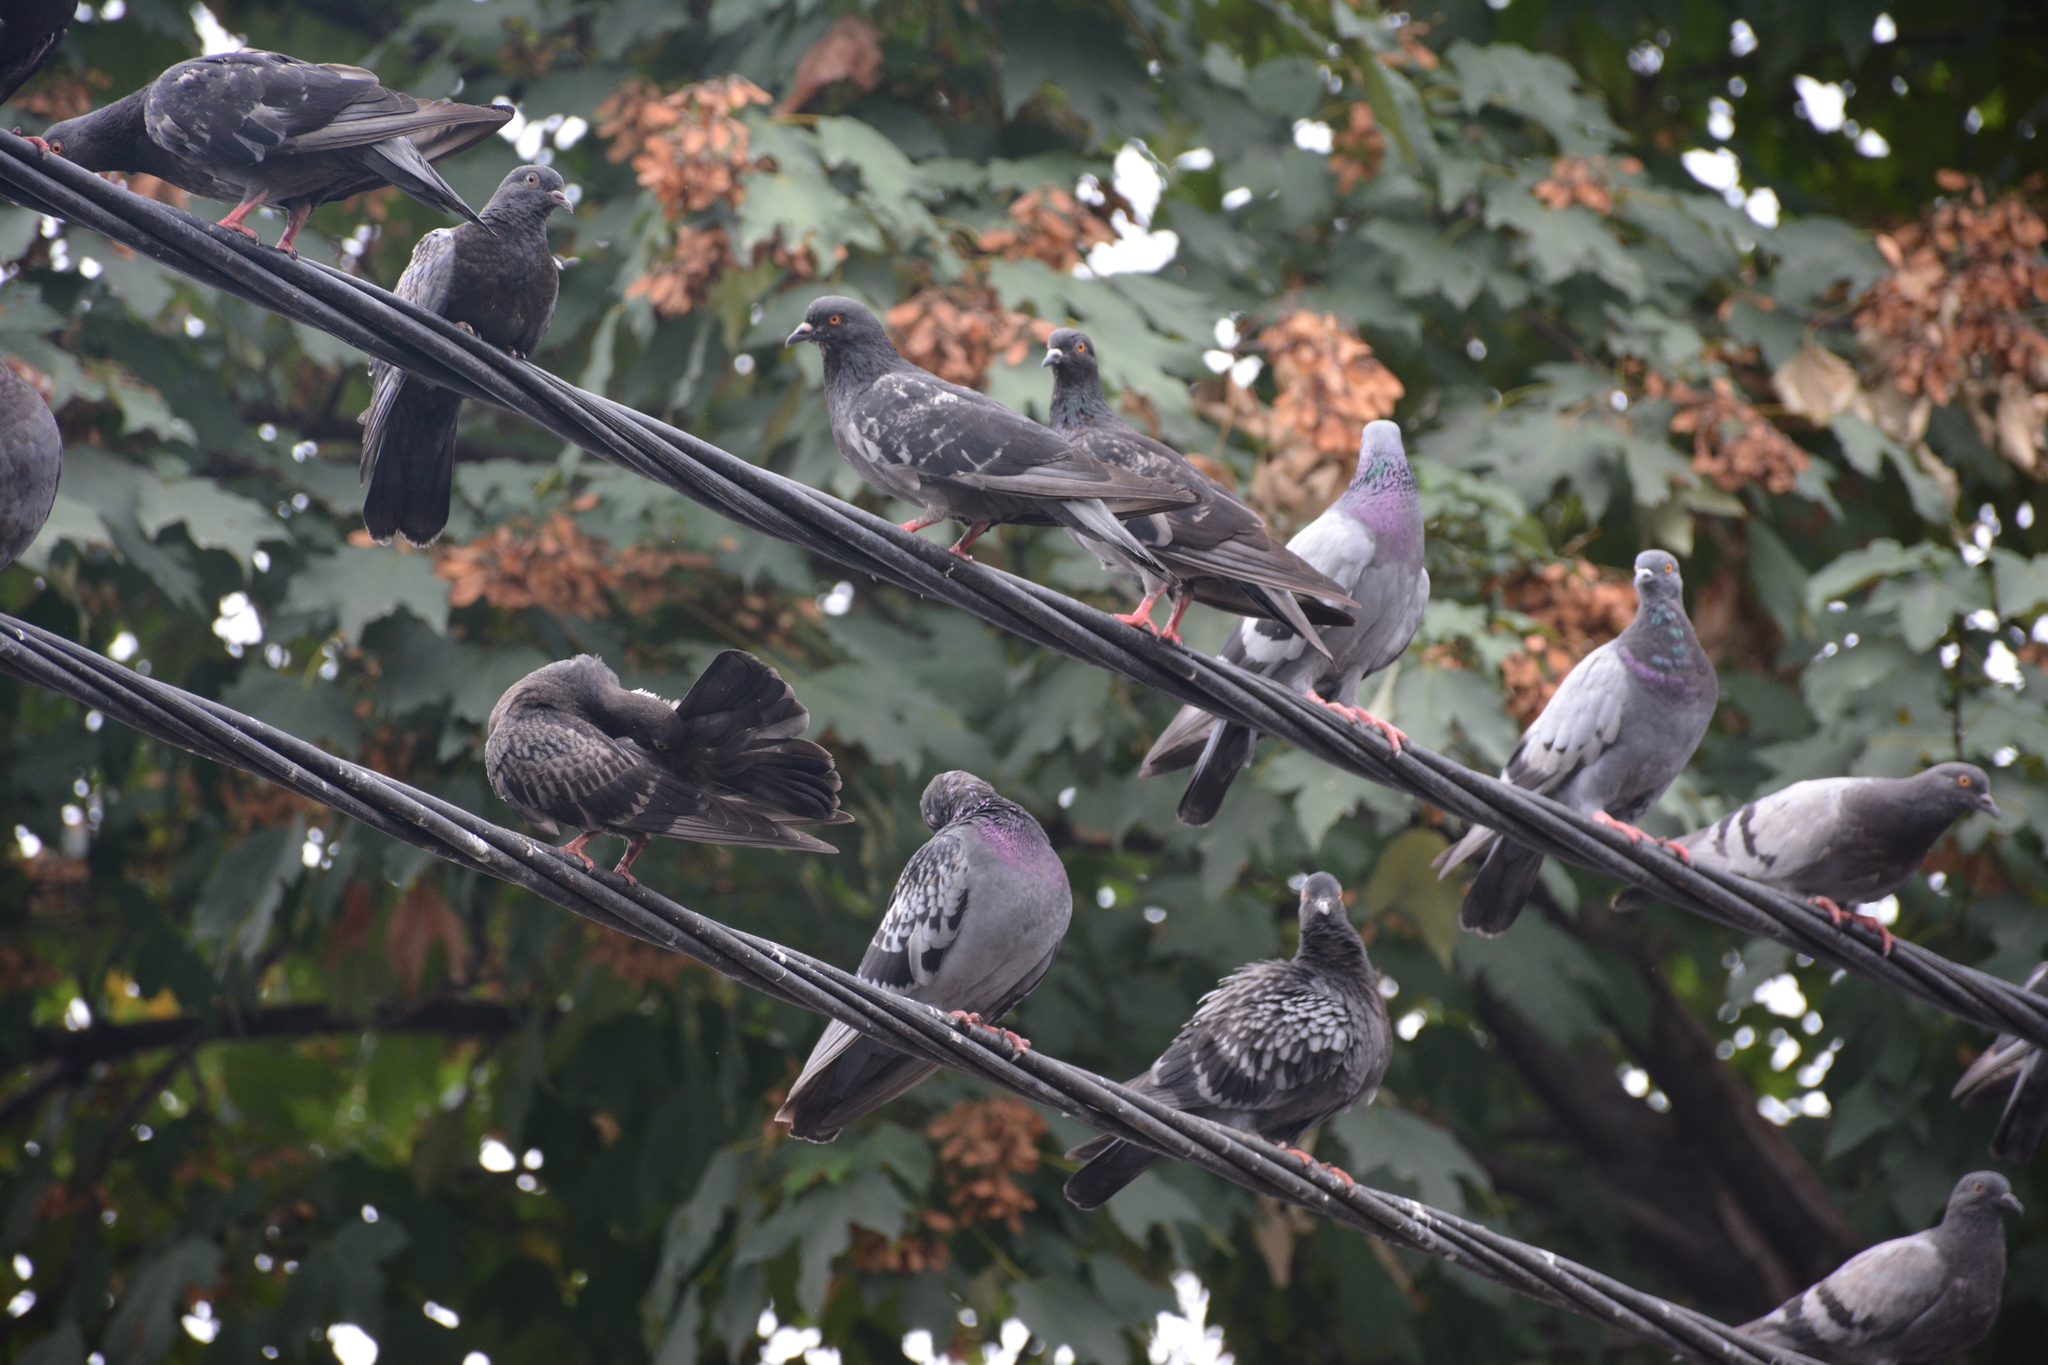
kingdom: Animalia
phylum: Chordata
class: Aves
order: Columbiformes
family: Columbidae
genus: Columba
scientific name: Columba livia
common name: Rock pigeon
